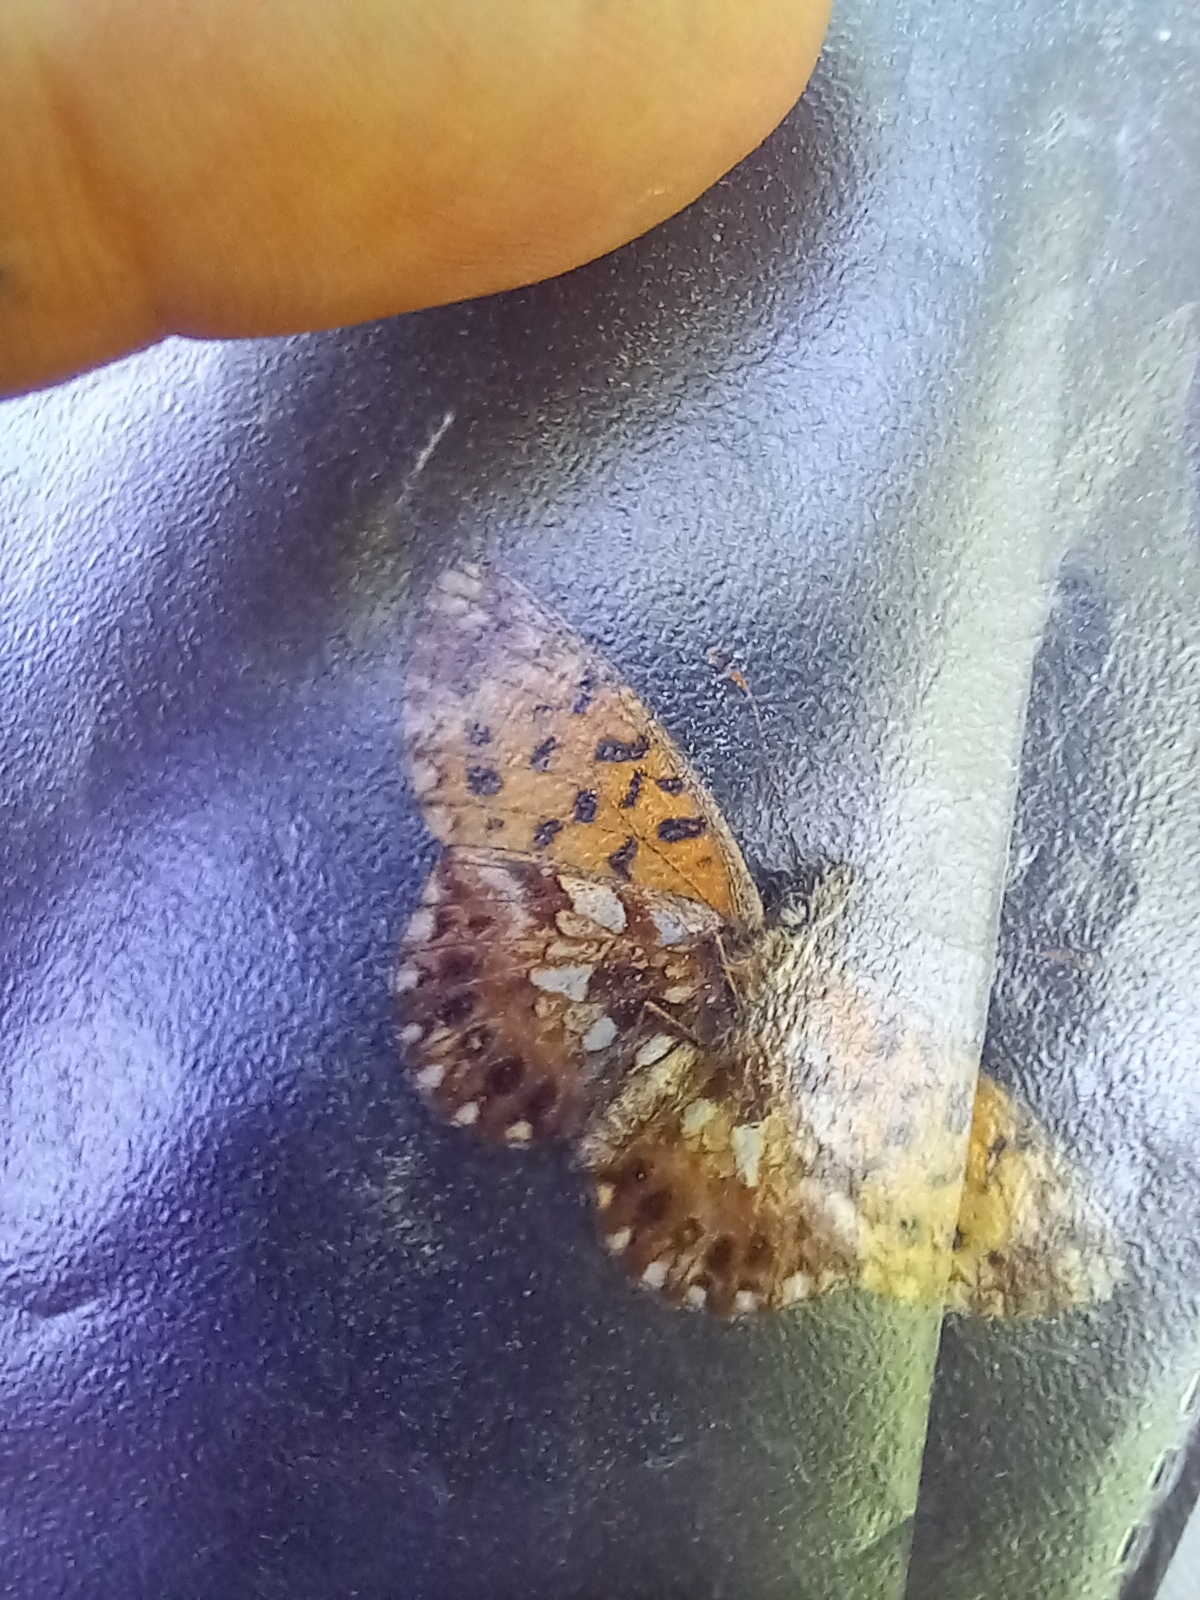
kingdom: Animalia
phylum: Arthropoda
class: Insecta
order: Lepidoptera
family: Nymphalidae
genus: Boloria
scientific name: Boloria dia
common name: Weaver's fritillary
